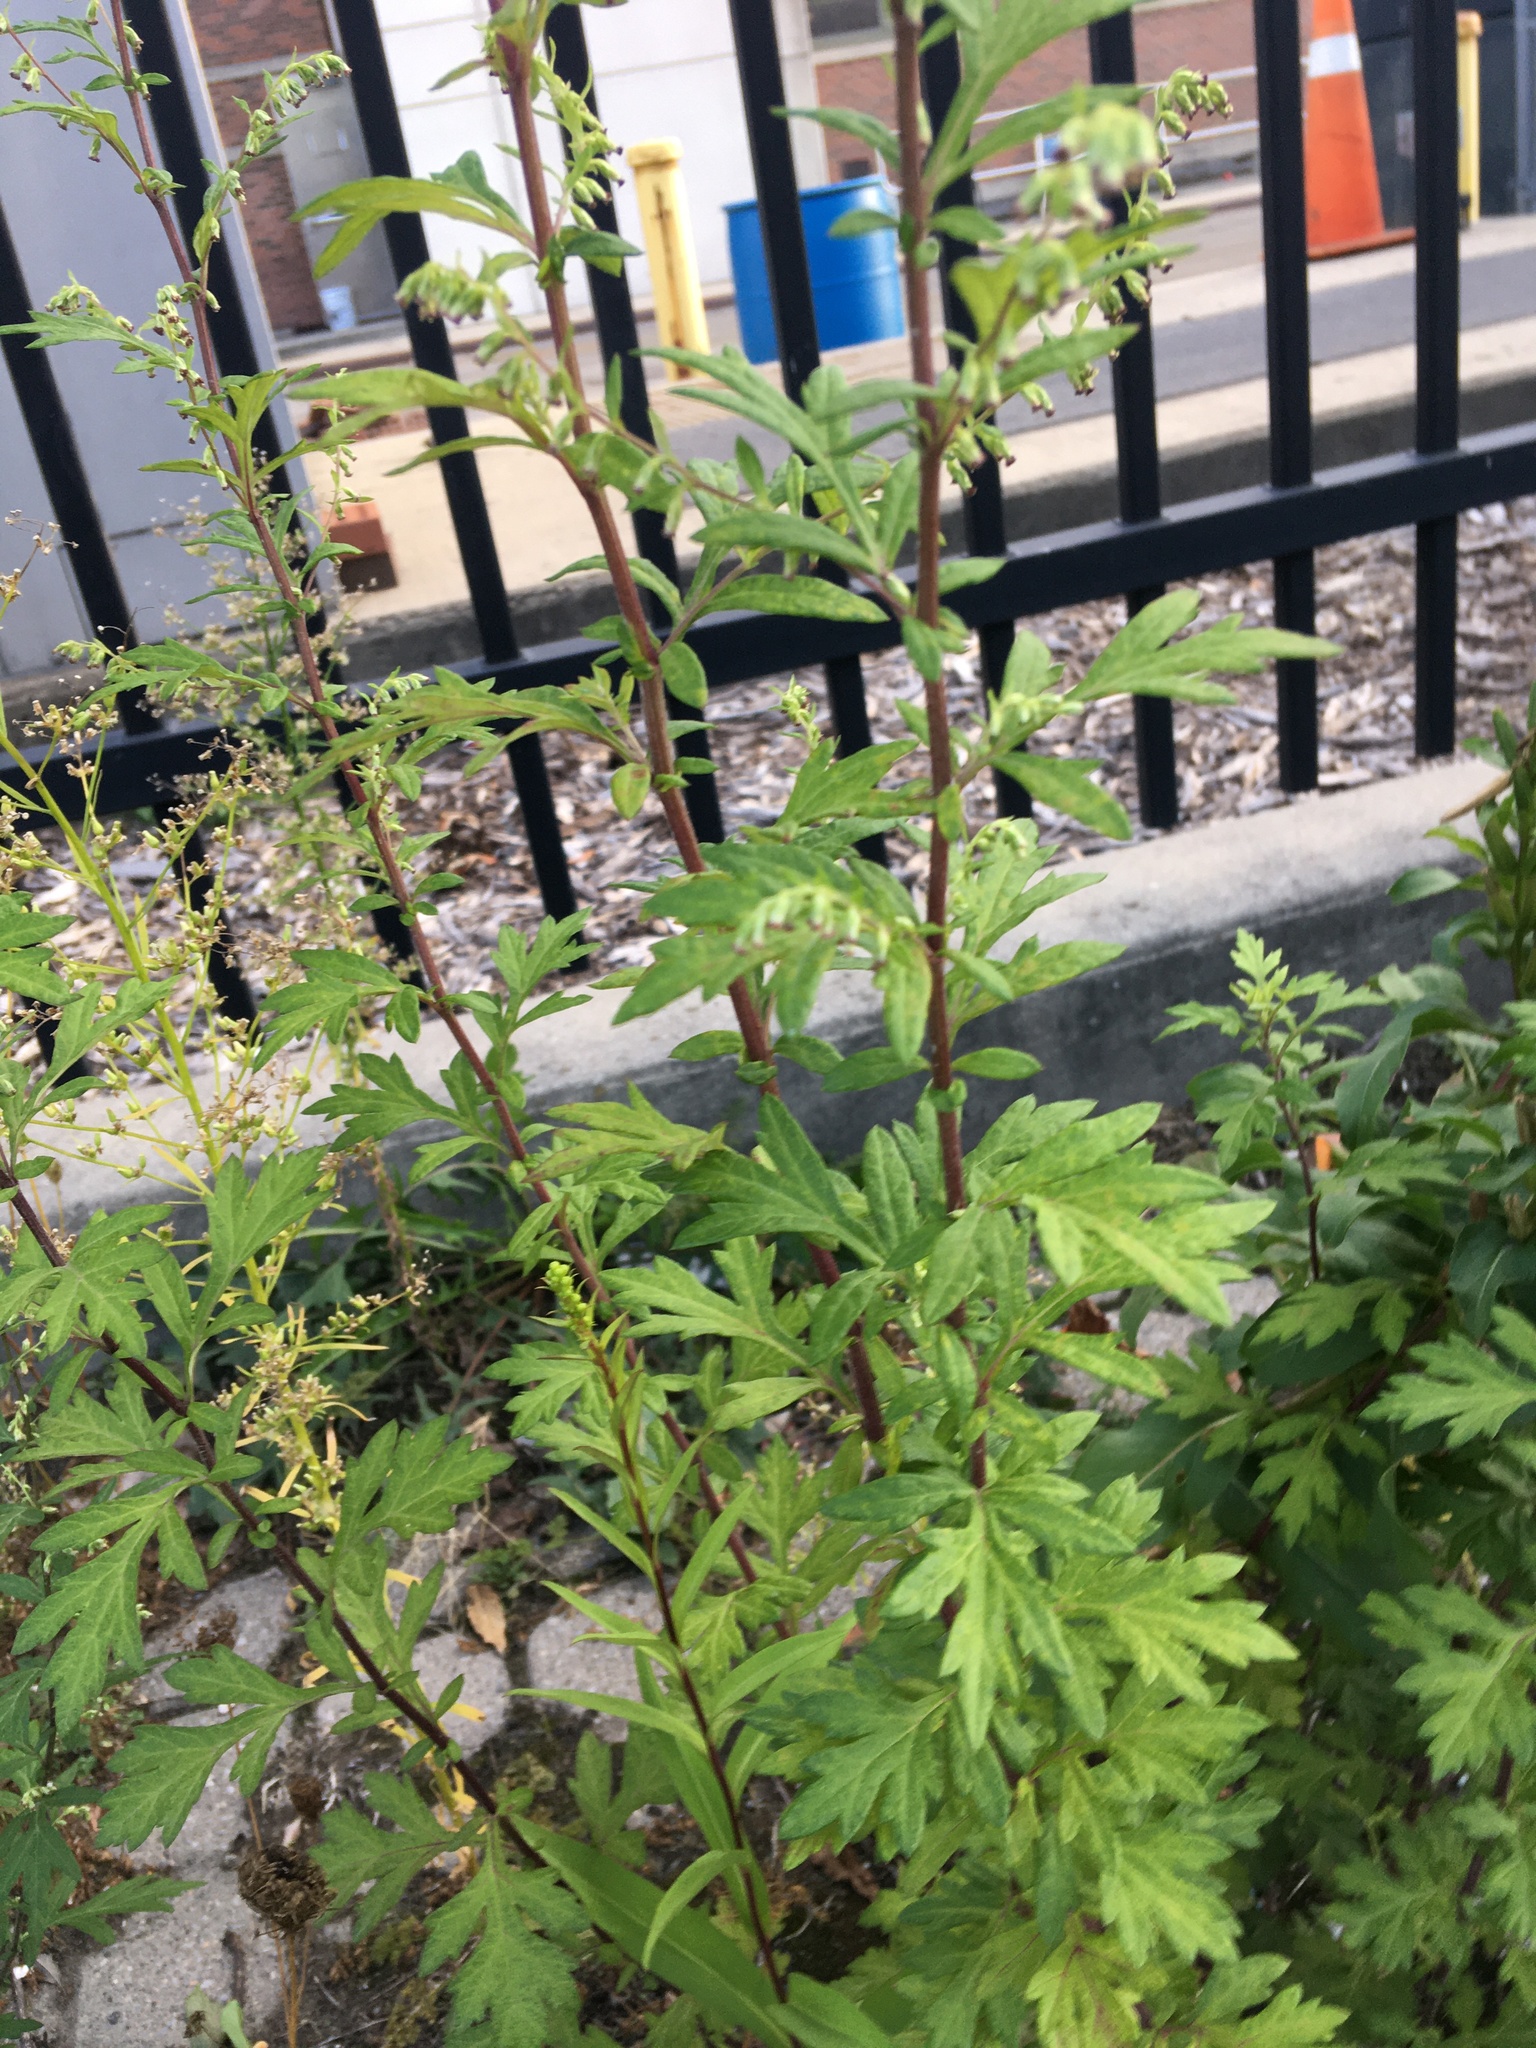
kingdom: Plantae
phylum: Tracheophyta
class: Magnoliopsida
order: Asterales
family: Asteraceae
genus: Artemisia
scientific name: Artemisia vulgaris
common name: Mugwort
